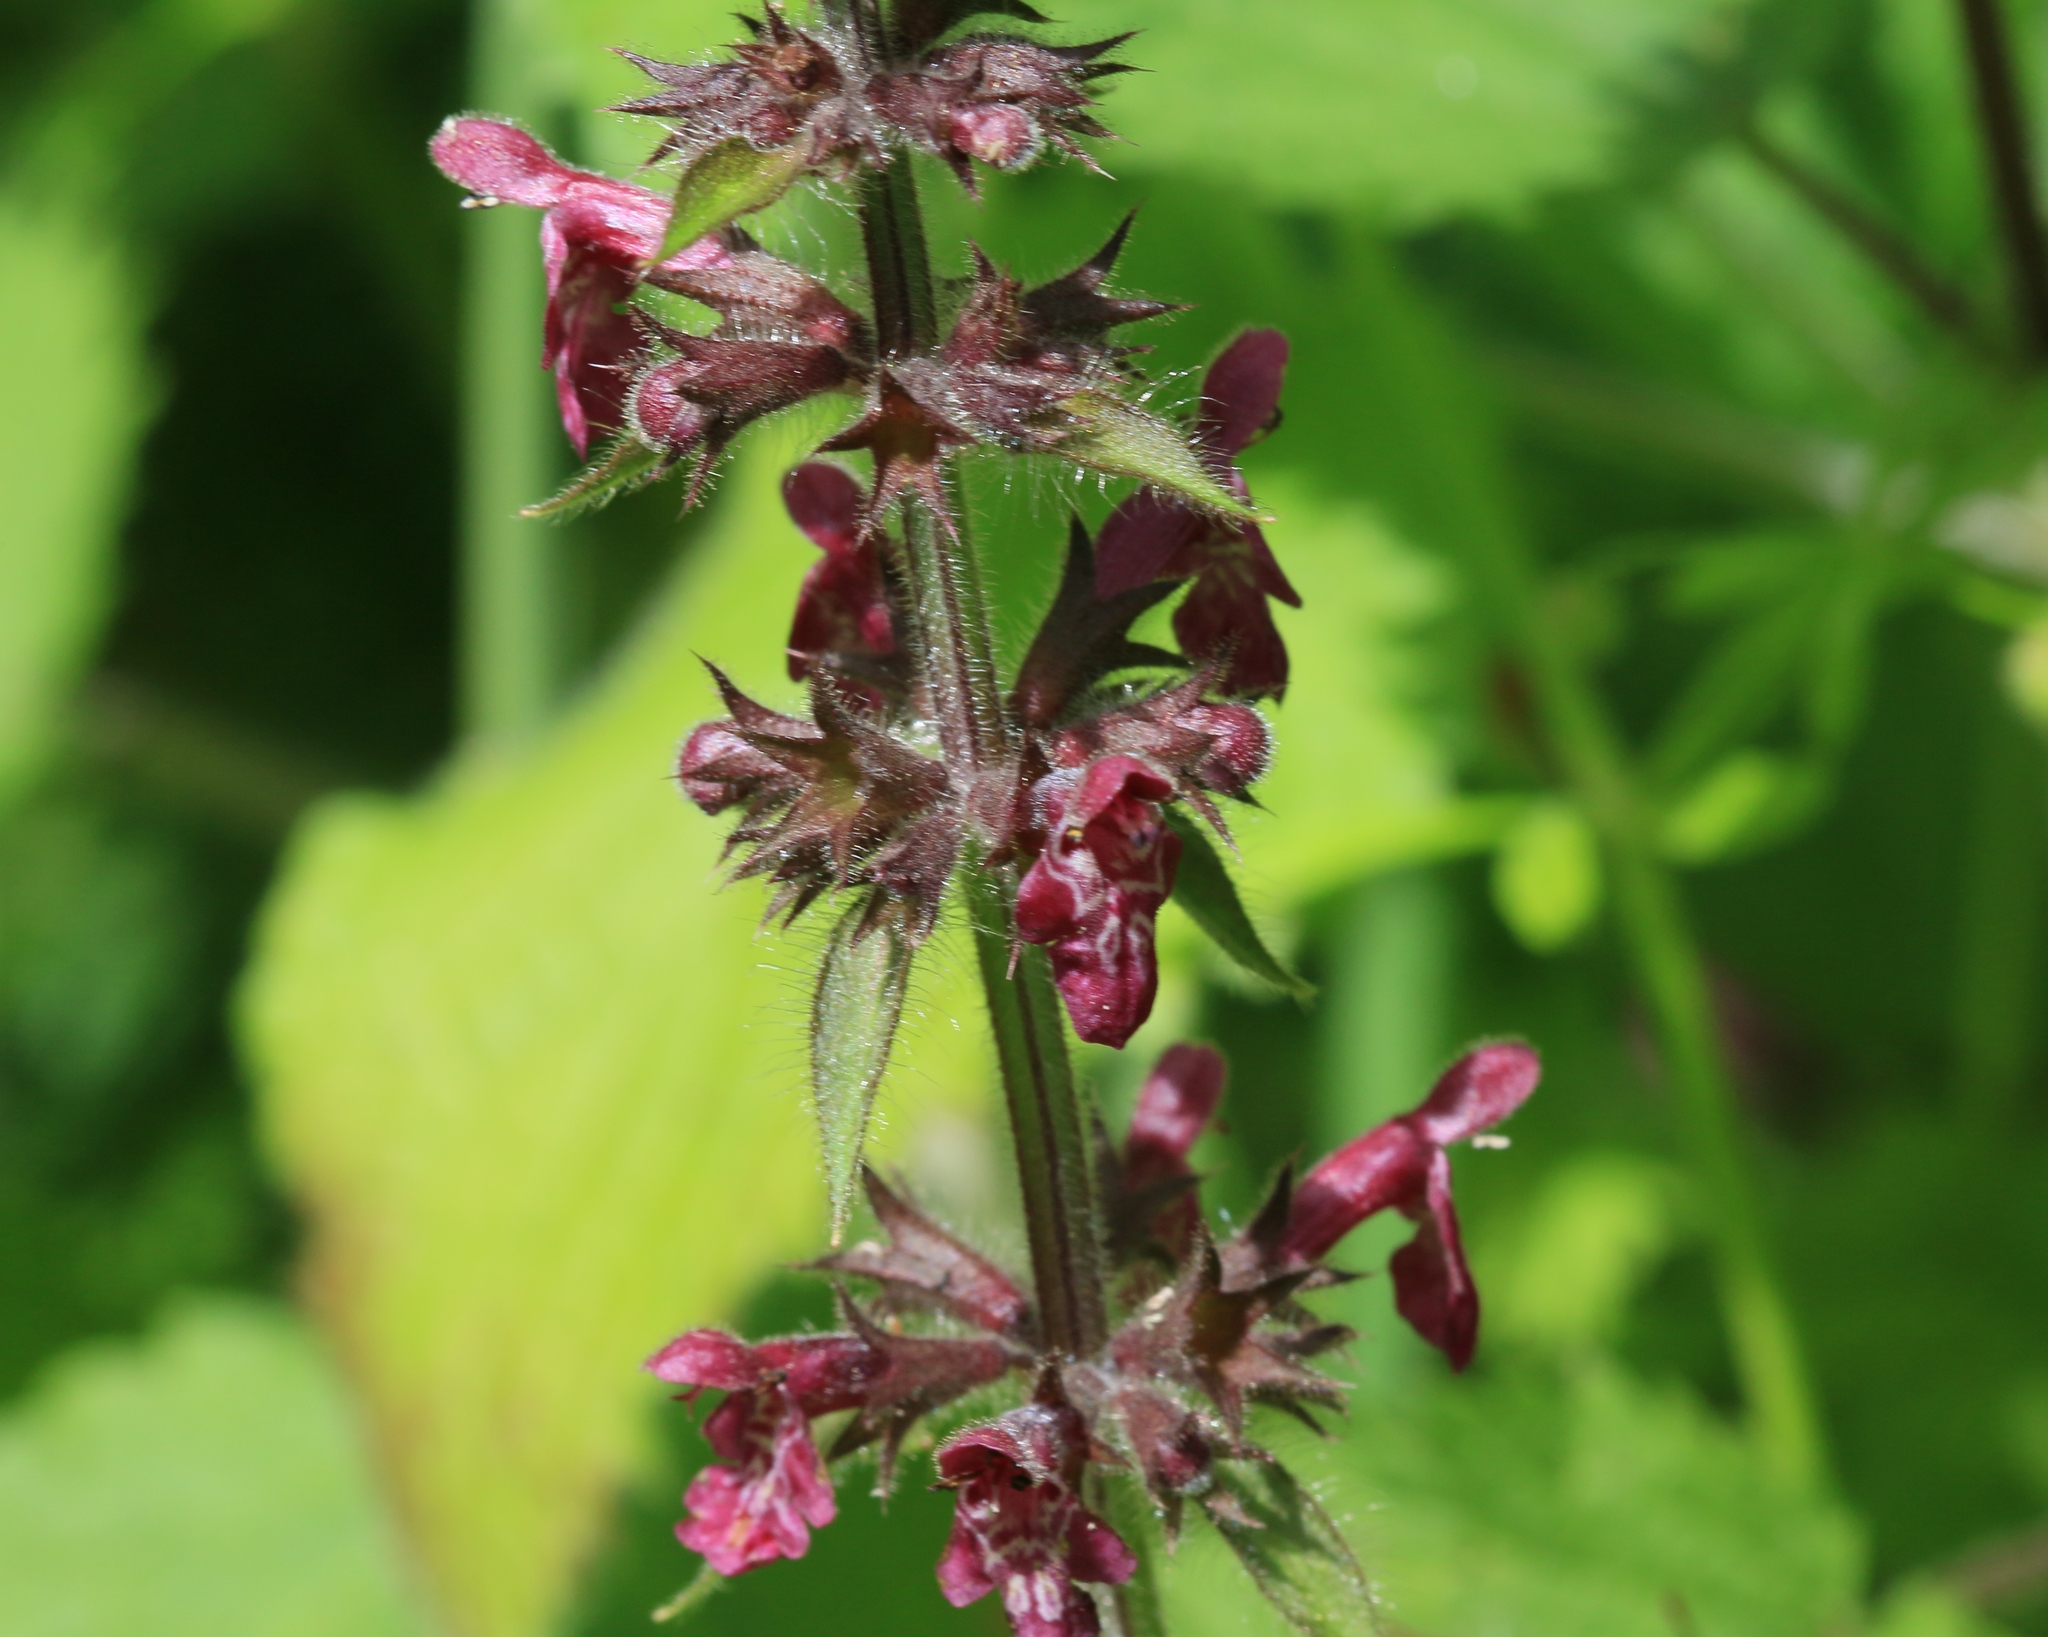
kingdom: Plantae
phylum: Tracheophyta
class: Magnoliopsida
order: Lamiales
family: Lamiaceae
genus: Stachys
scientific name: Stachys sylvatica
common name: Hedge woundwort
